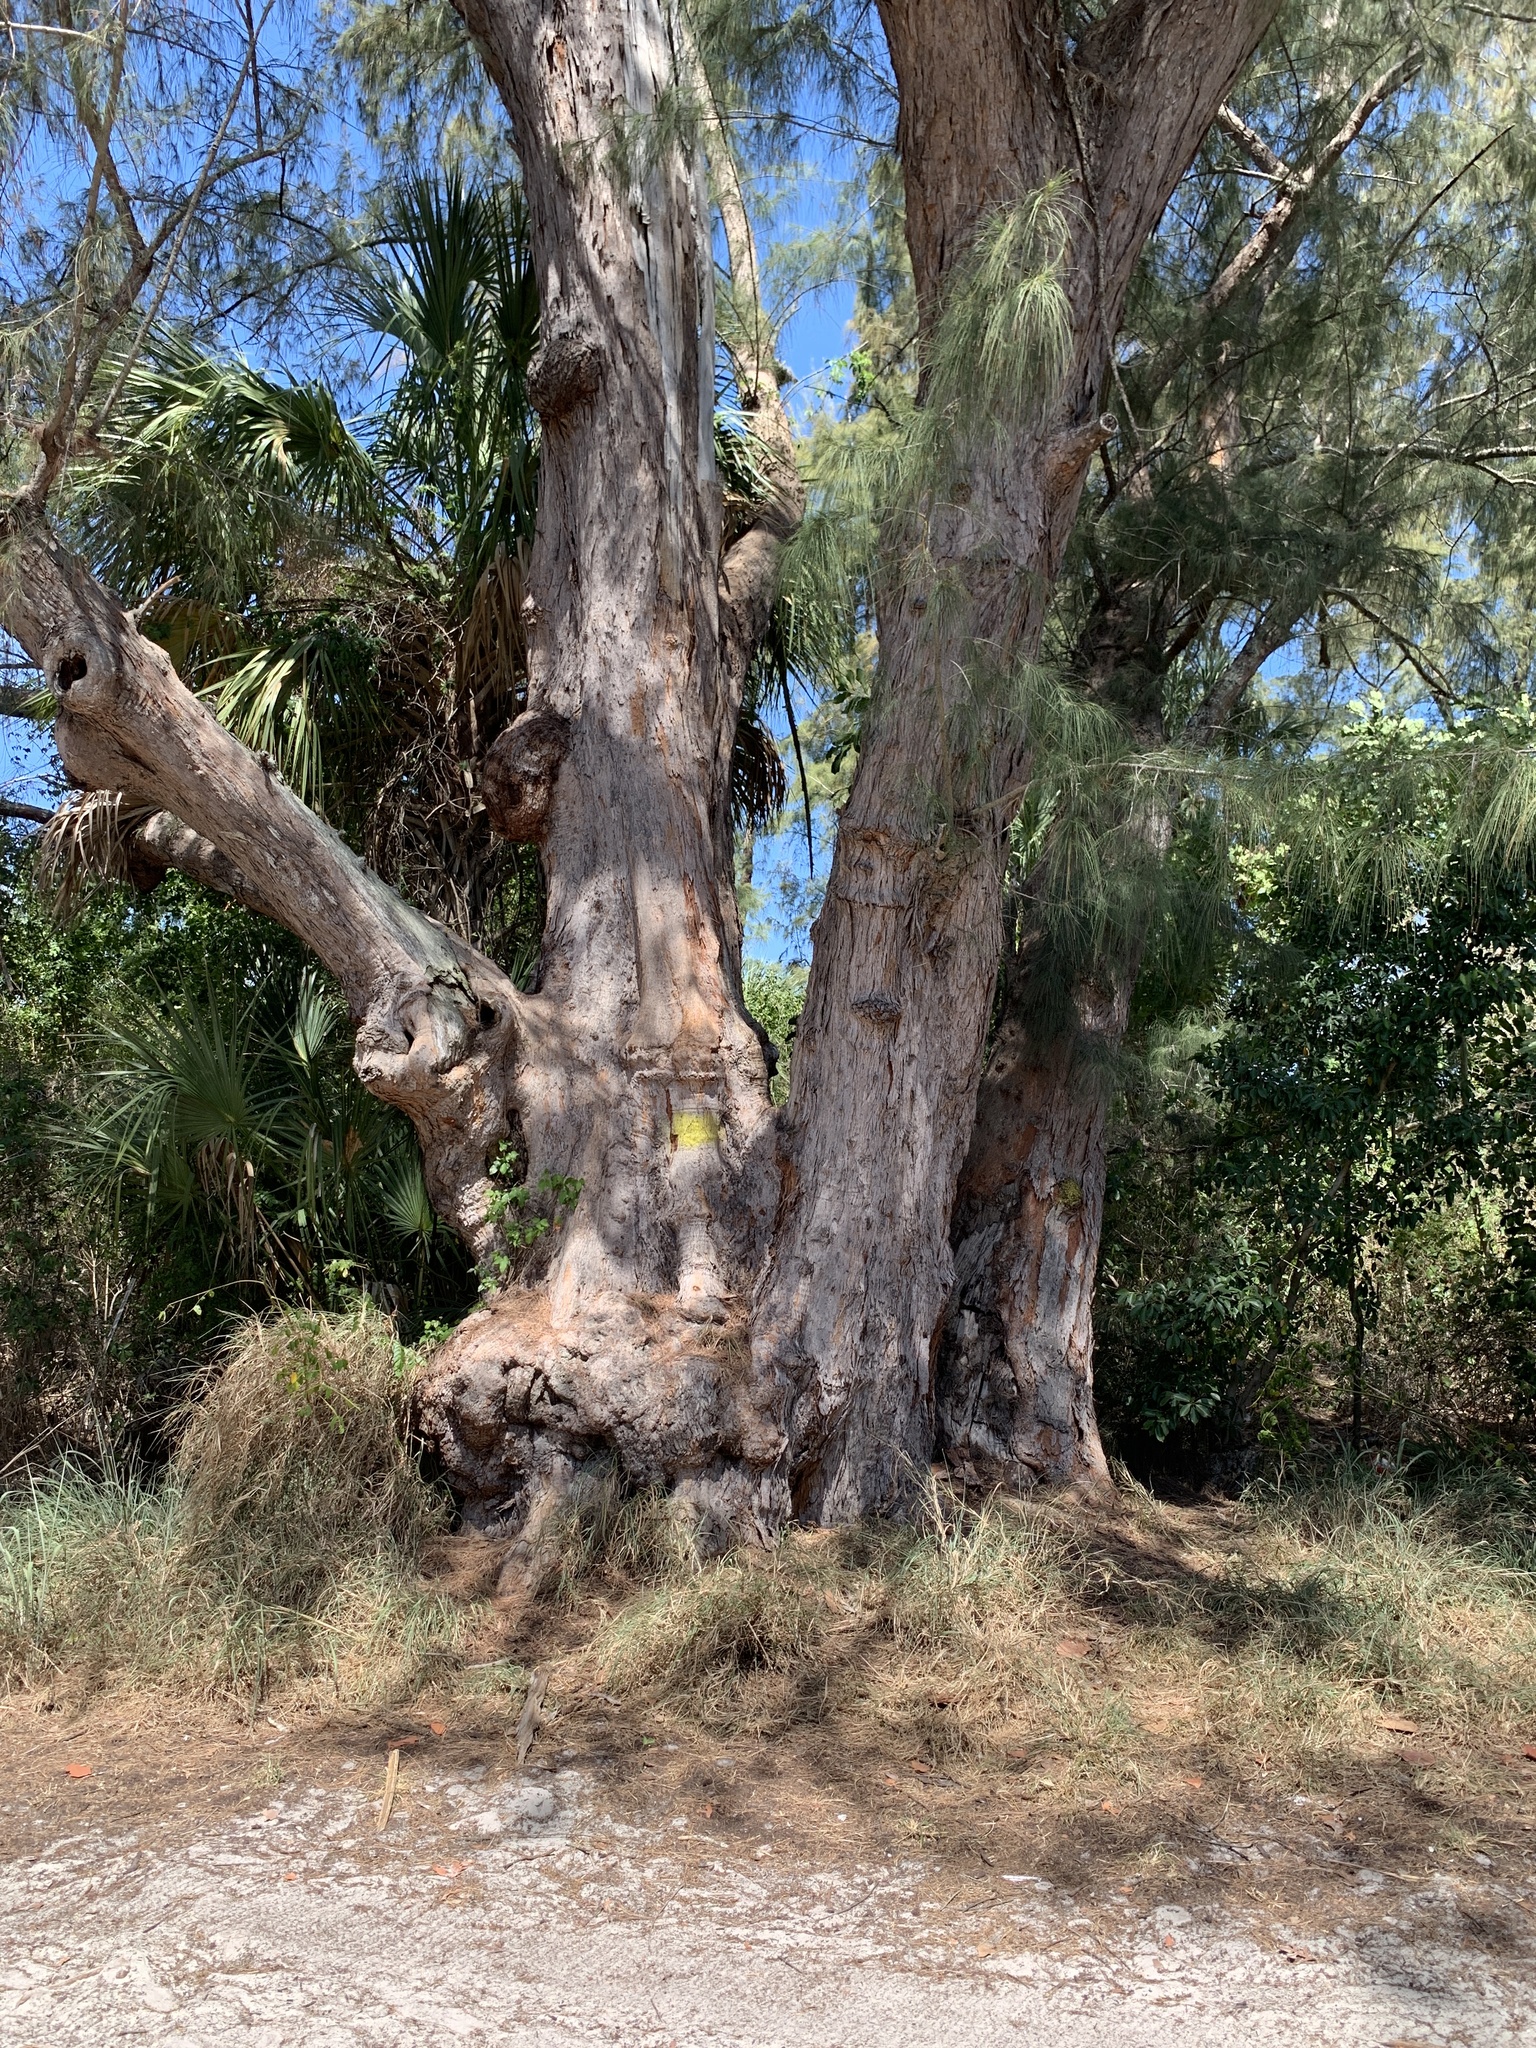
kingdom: Plantae
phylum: Tracheophyta
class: Magnoliopsida
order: Fagales
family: Casuarinaceae
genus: Casuarina
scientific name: Casuarina cunninghamiana
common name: River sheoak
